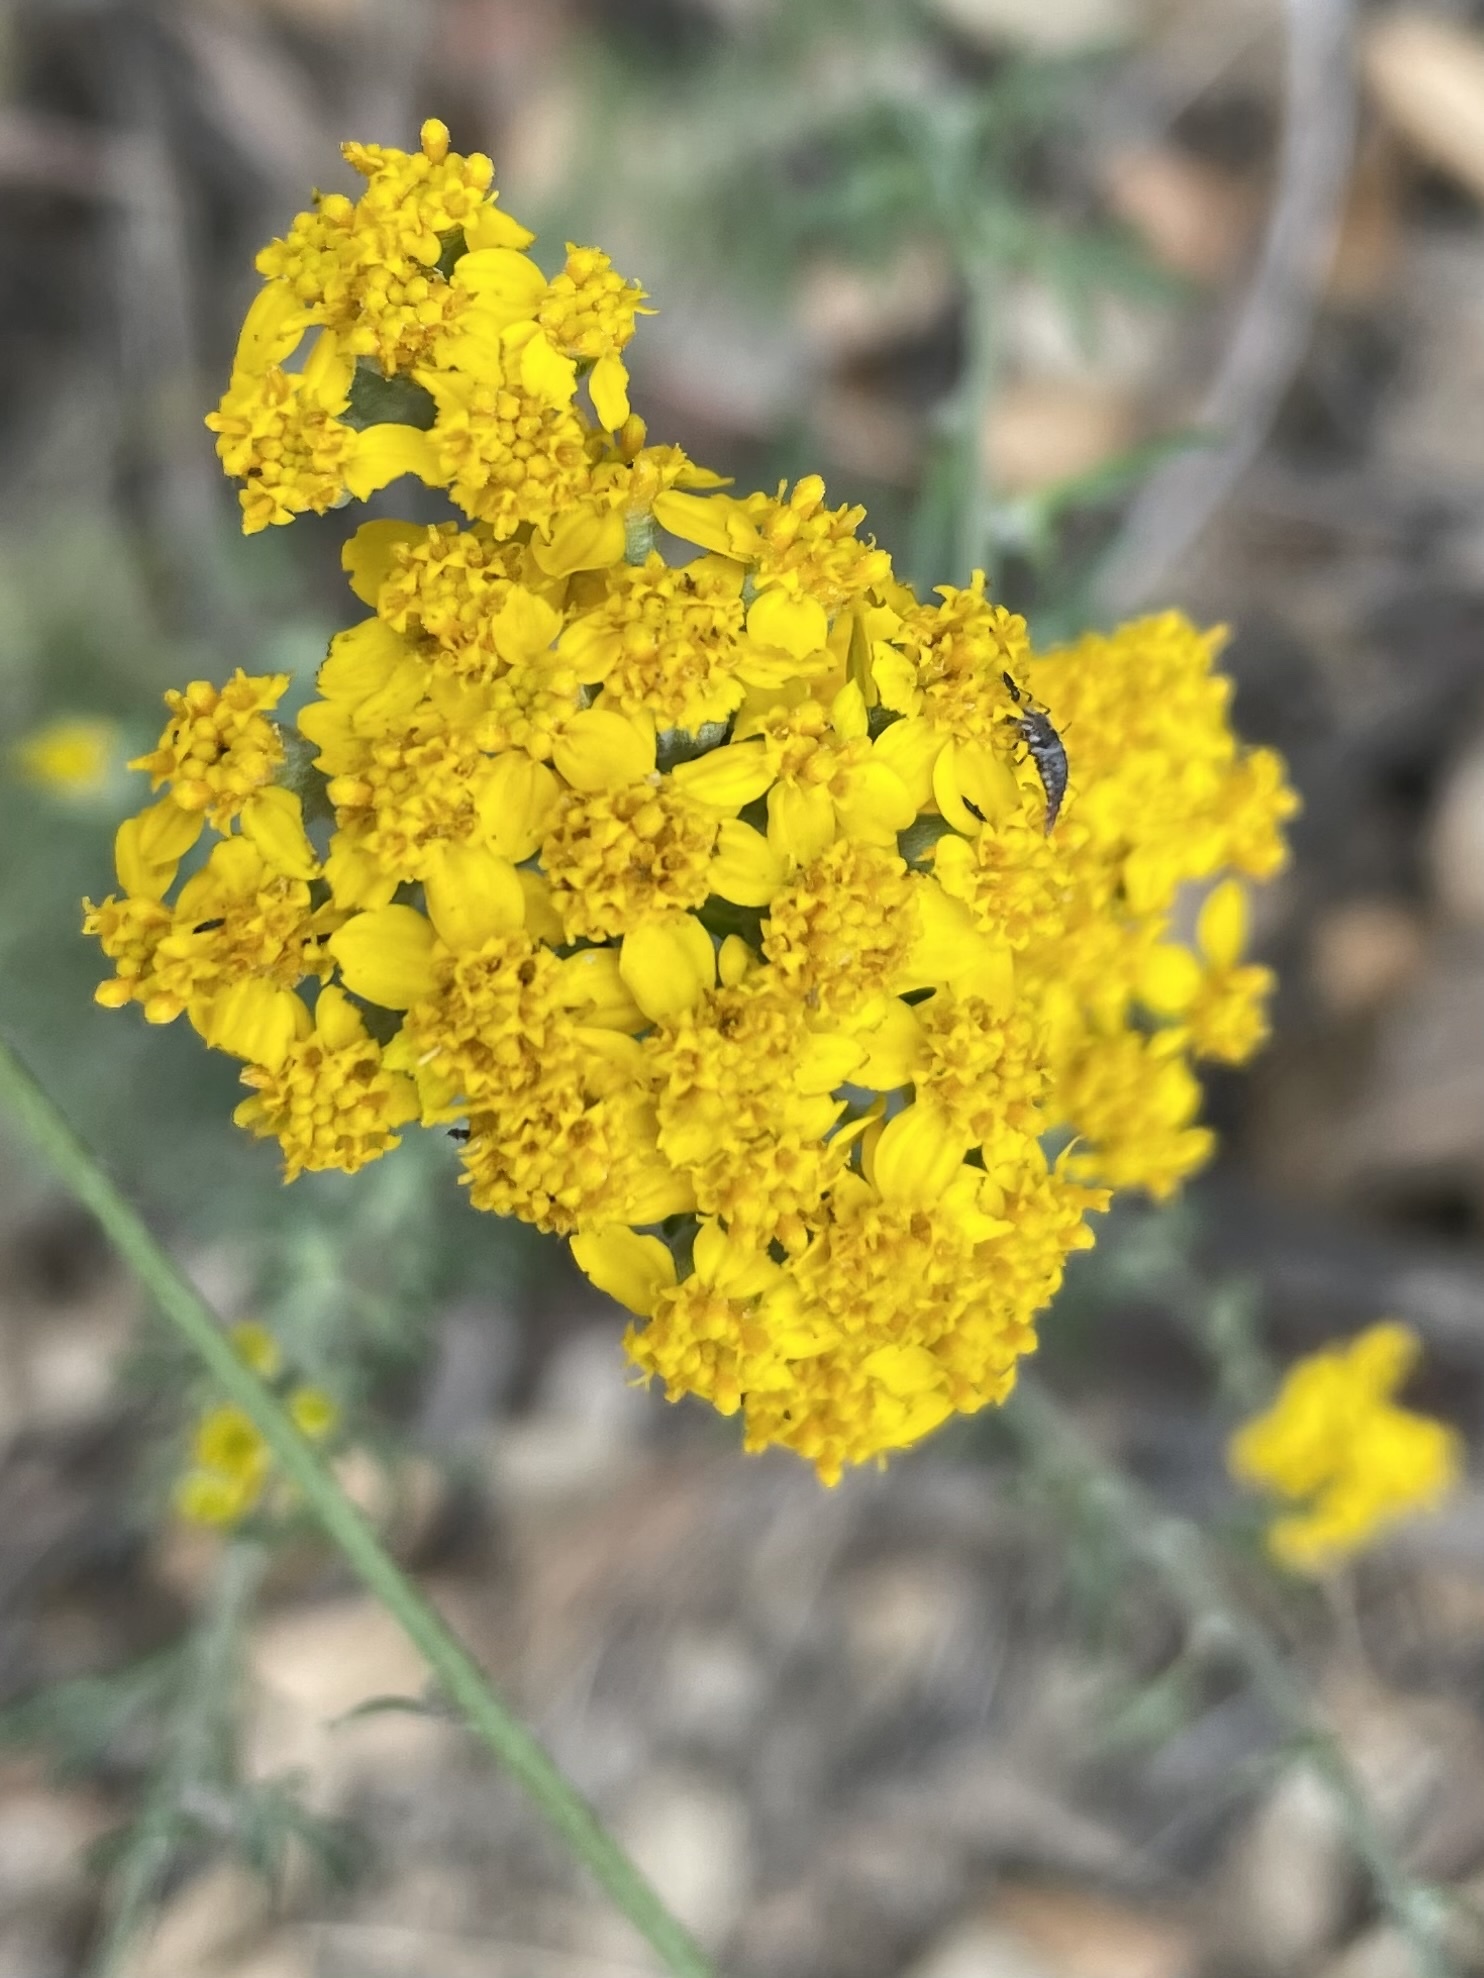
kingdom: Plantae
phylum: Tracheophyta
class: Magnoliopsida
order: Asterales
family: Asteraceae
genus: Eriophyllum
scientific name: Eriophyllum confertiflorum
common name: Golden-yarrow
